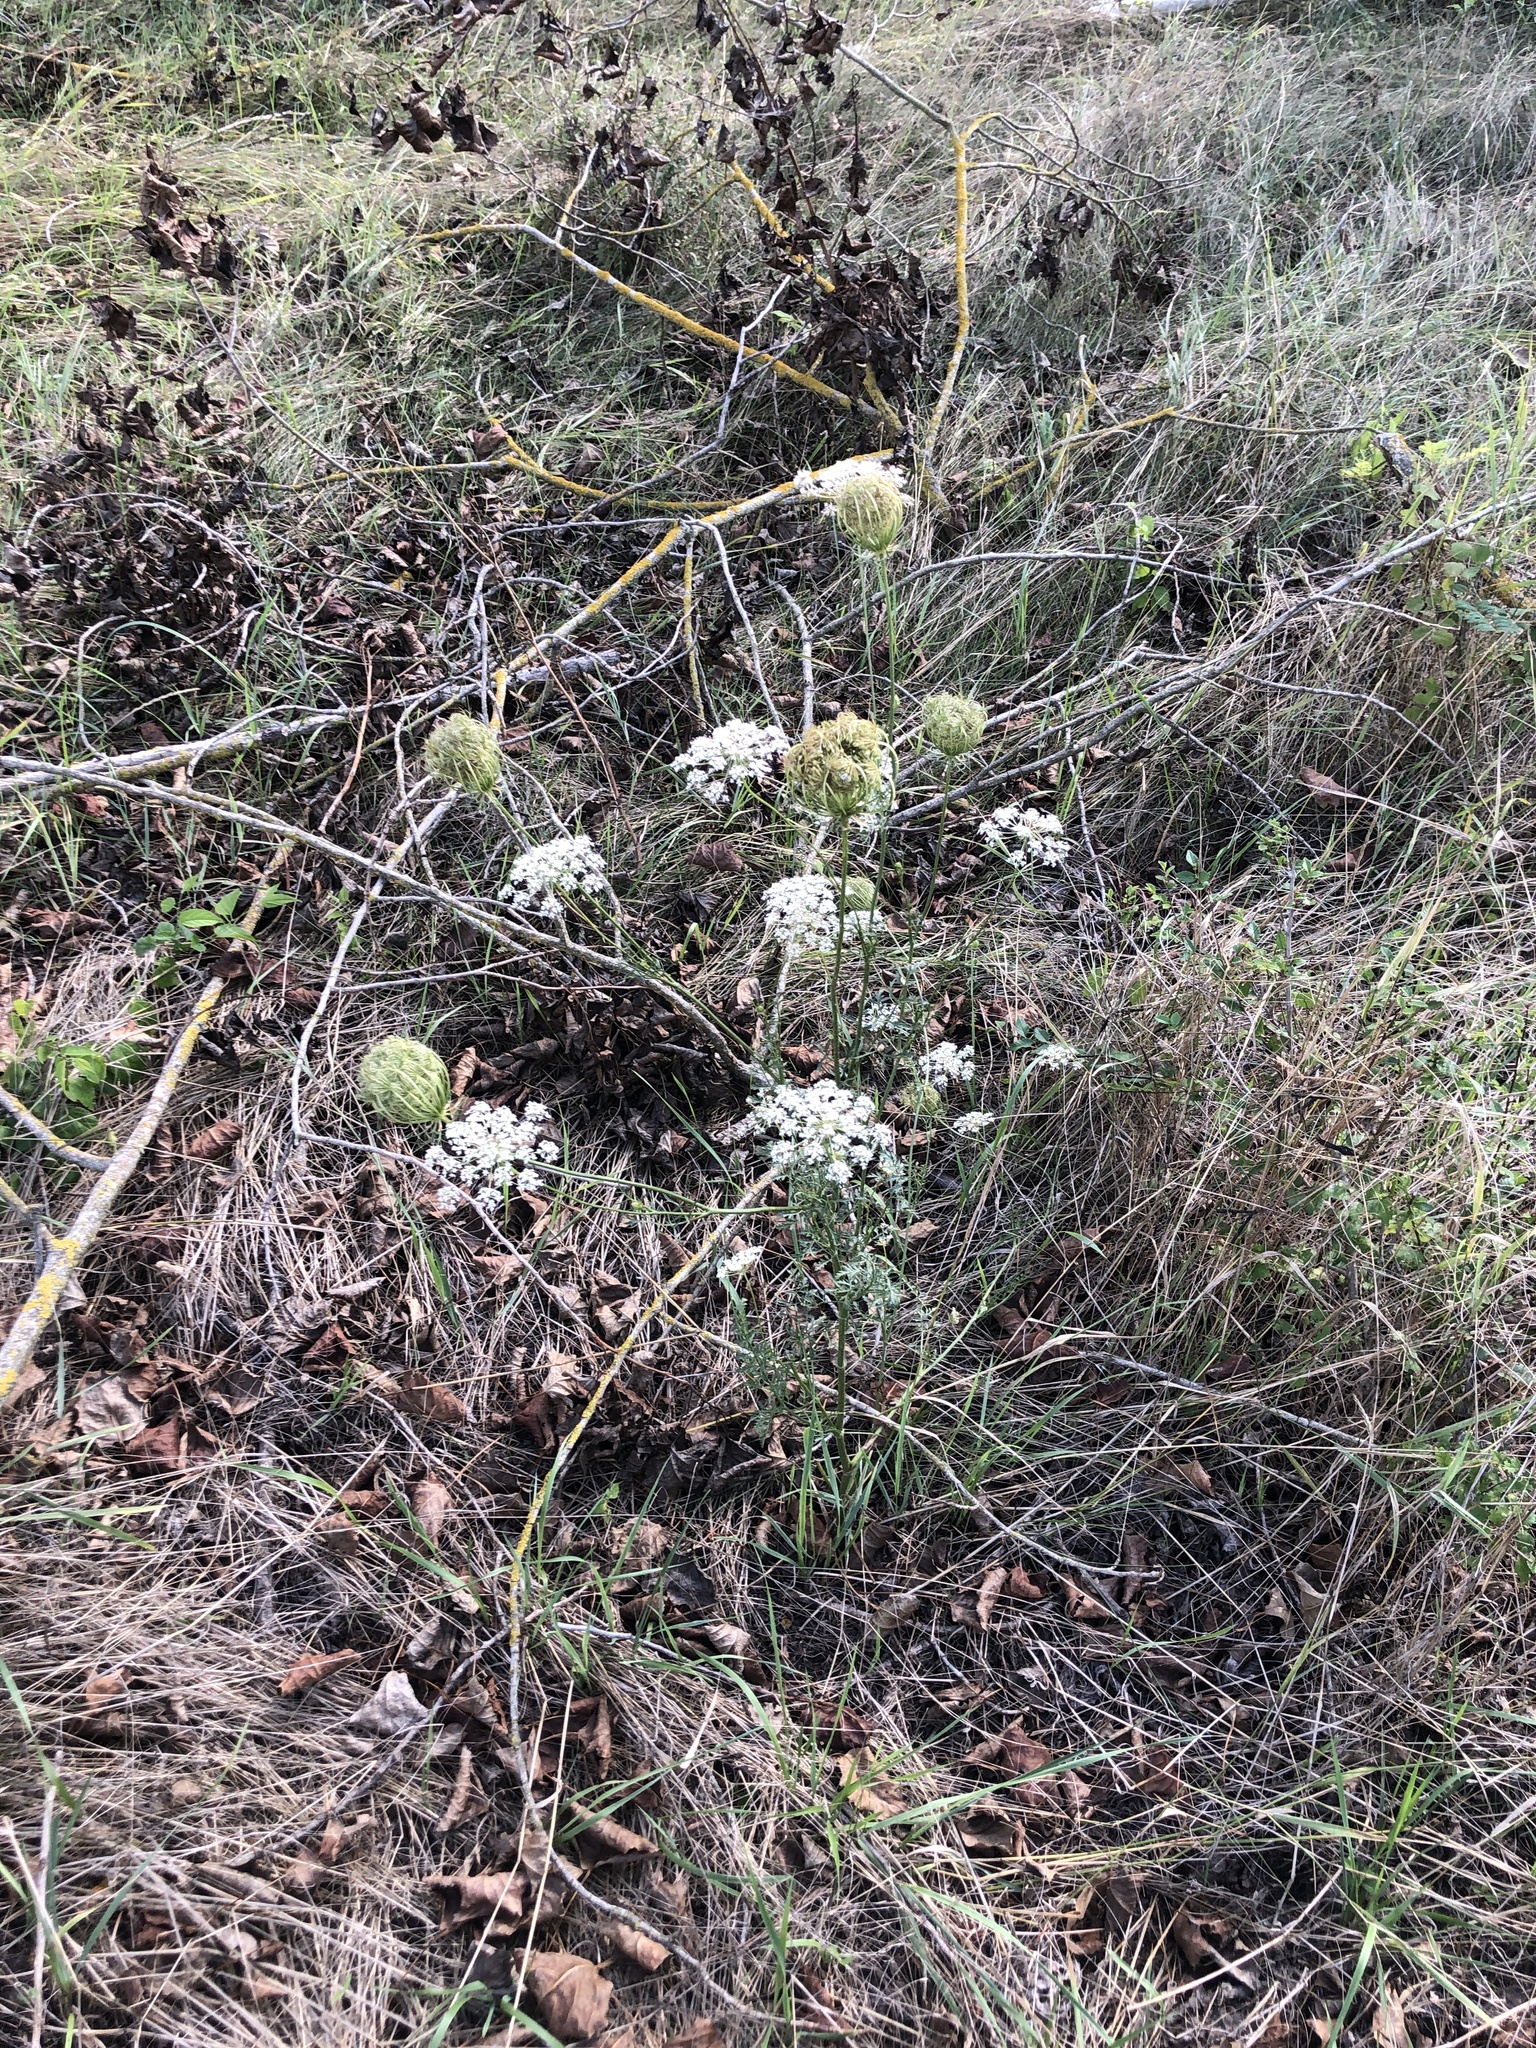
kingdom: Plantae
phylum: Tracheophyta
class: Magnoliopsida
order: Apiales
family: Apiaceae
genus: Daucus
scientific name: Daucus carota
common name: Wild carrot
